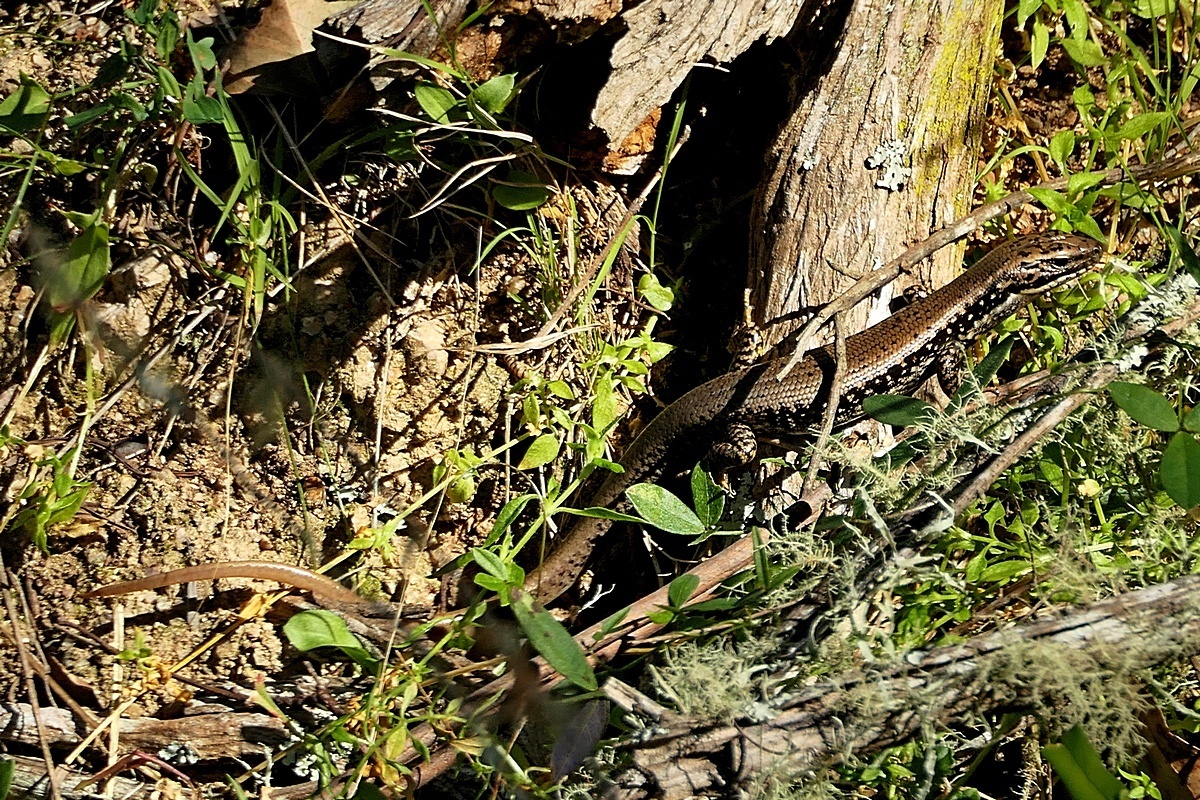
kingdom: Animalia
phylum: Chordata
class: Squamata
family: Scincidae
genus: Eulamprus
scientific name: Eulamprus heatwolei
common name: Warm-temperate water-skink
